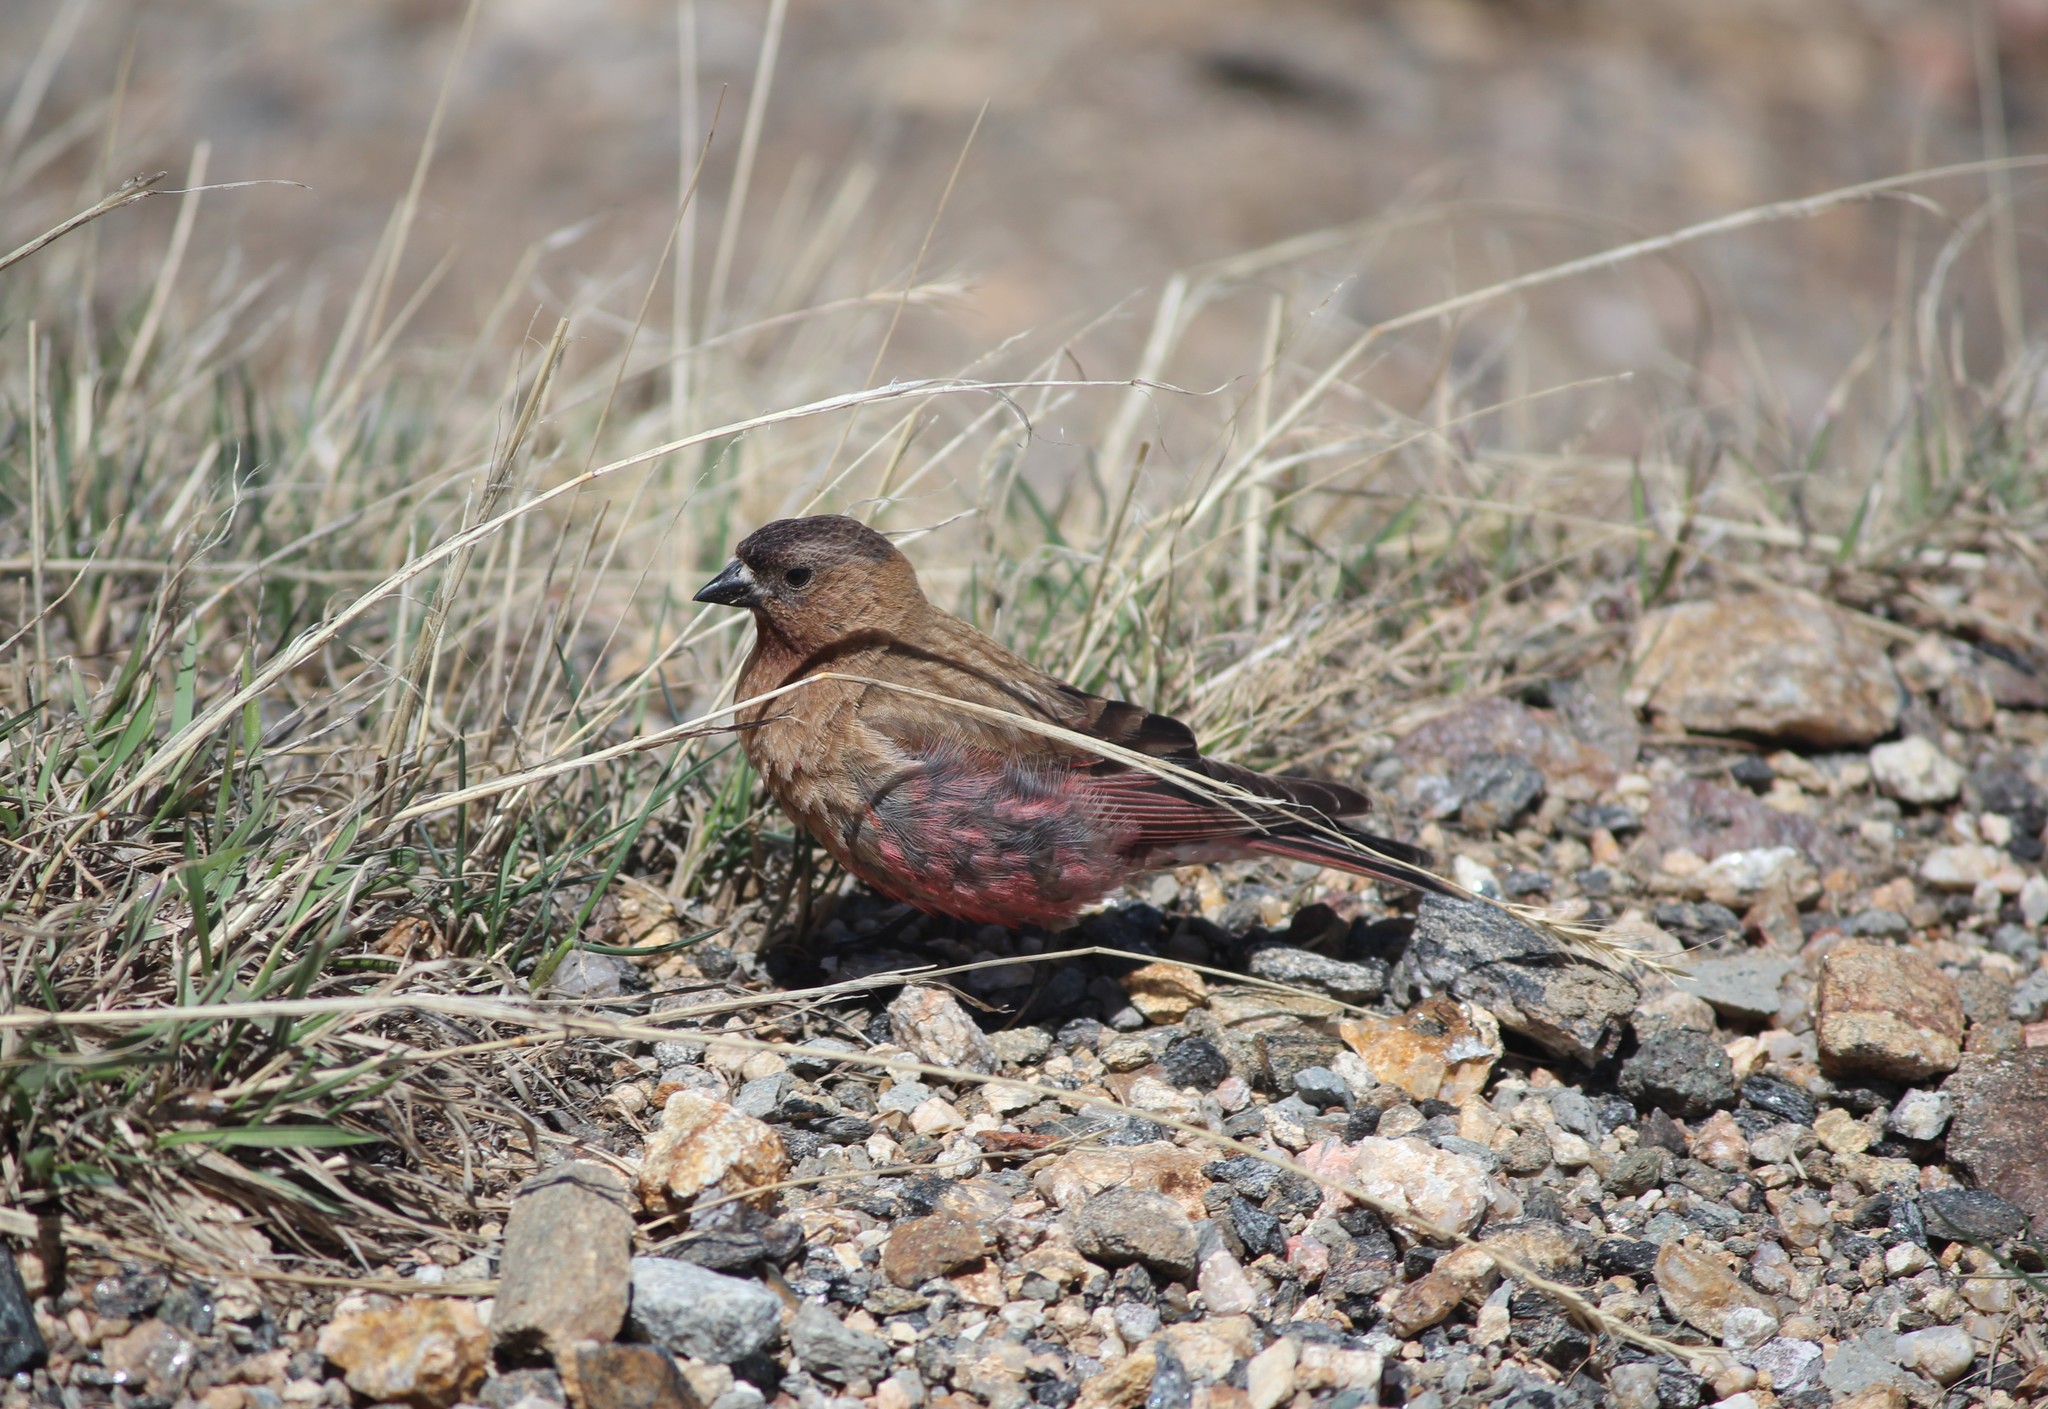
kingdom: Animalia
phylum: Chordata
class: Aves
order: Passeriformes
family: Fringillidae
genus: Leucosticte
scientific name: Leucosticte australis
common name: Brown-capped rosy-finch
